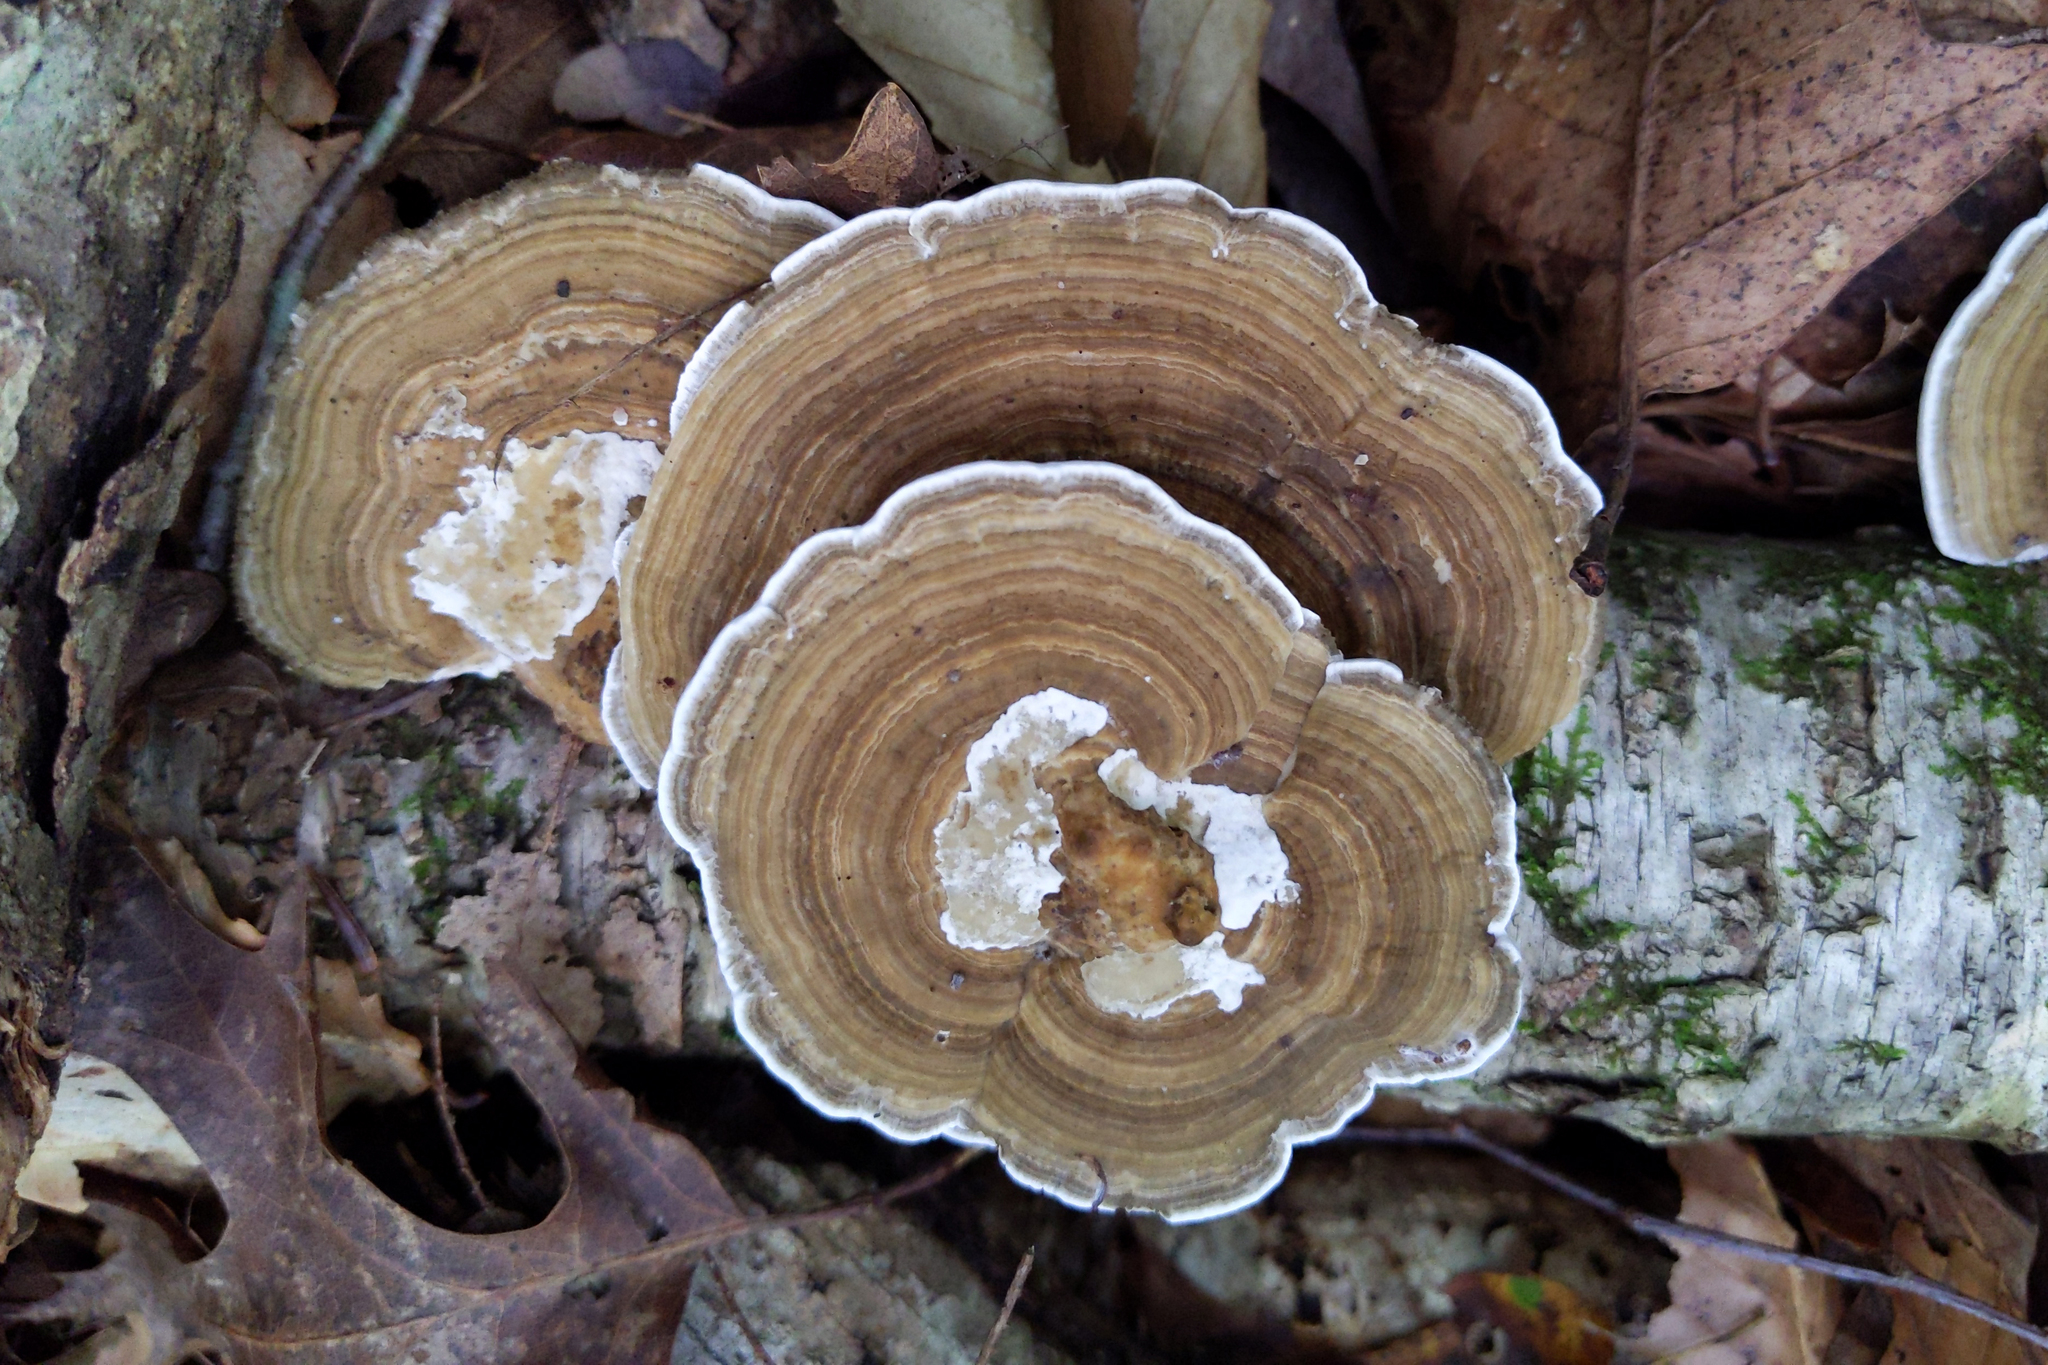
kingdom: Fungi
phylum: Basidiomycota
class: Agaricomycetes
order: Polyporales
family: Polyporaceae
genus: Daedaleopsis
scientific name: Daedaleopsis confragosa
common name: Blushing bracket
